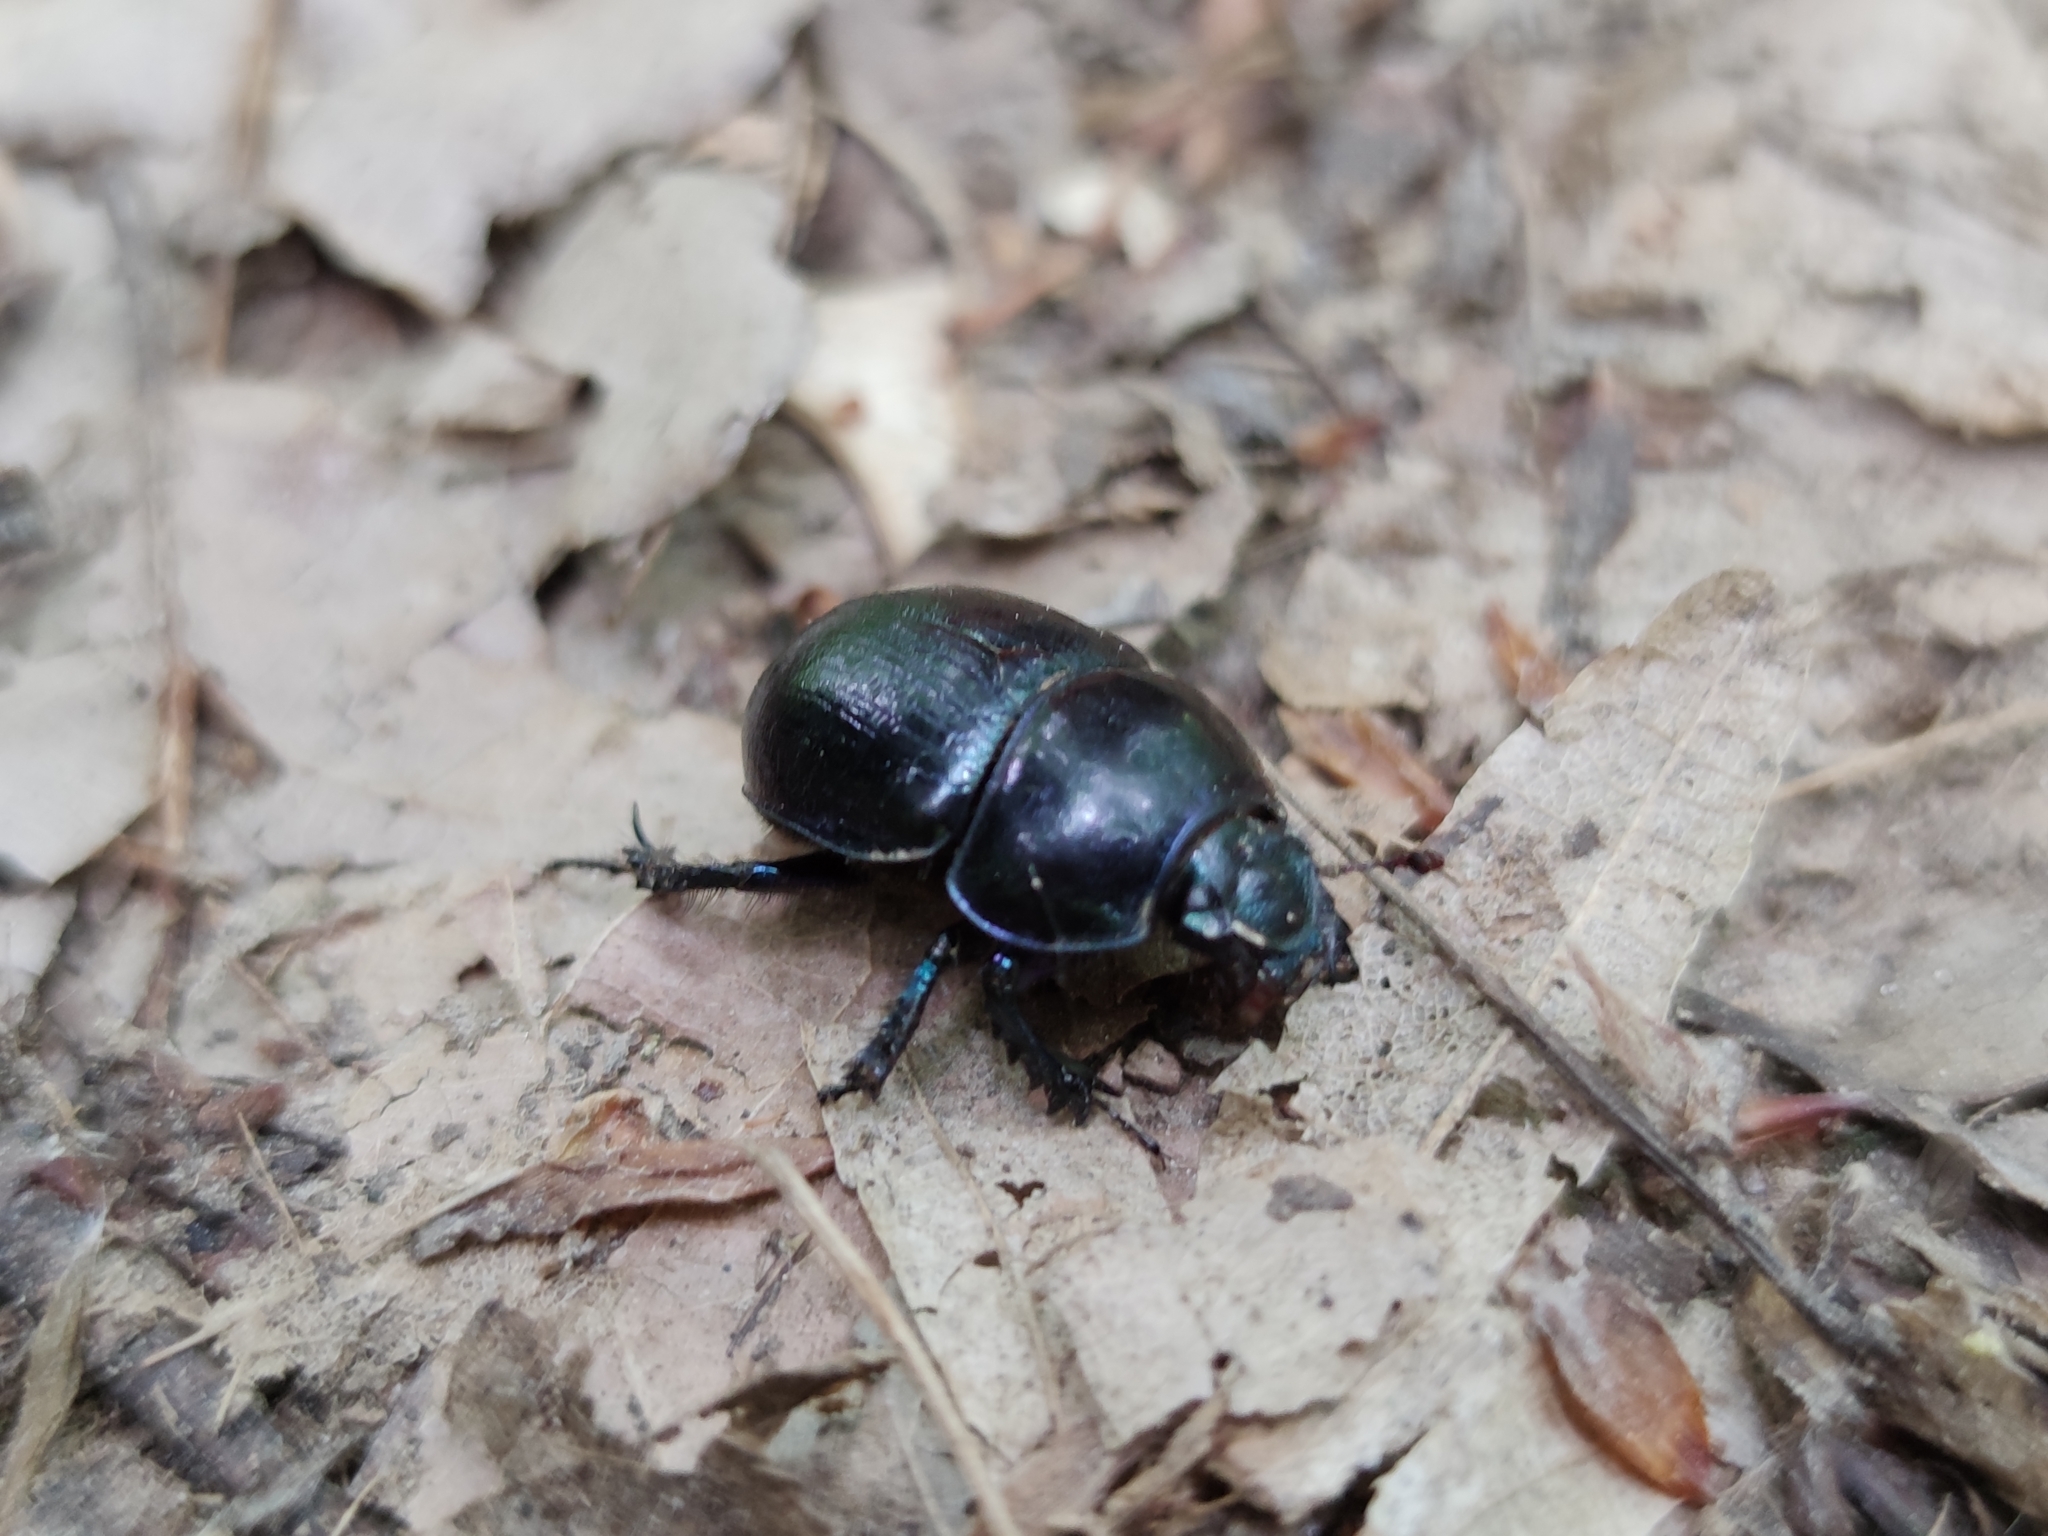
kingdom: Animalia
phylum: Arthropoda
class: Insecta
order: Coleoptera
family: Geotrupidae
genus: Anoplotrupes
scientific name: Anoplotrupes stercorosus
